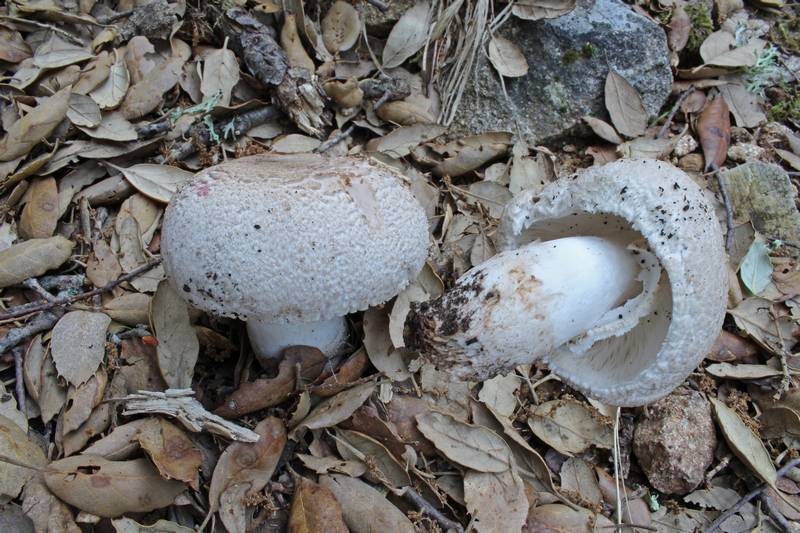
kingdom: Fungi
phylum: Basidiomycota
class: Agaricomycetes
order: Agaricales
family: Agaricaceae
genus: Leucoagaricus
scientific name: Leucoagaricus barssii
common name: Smoky dapperling
